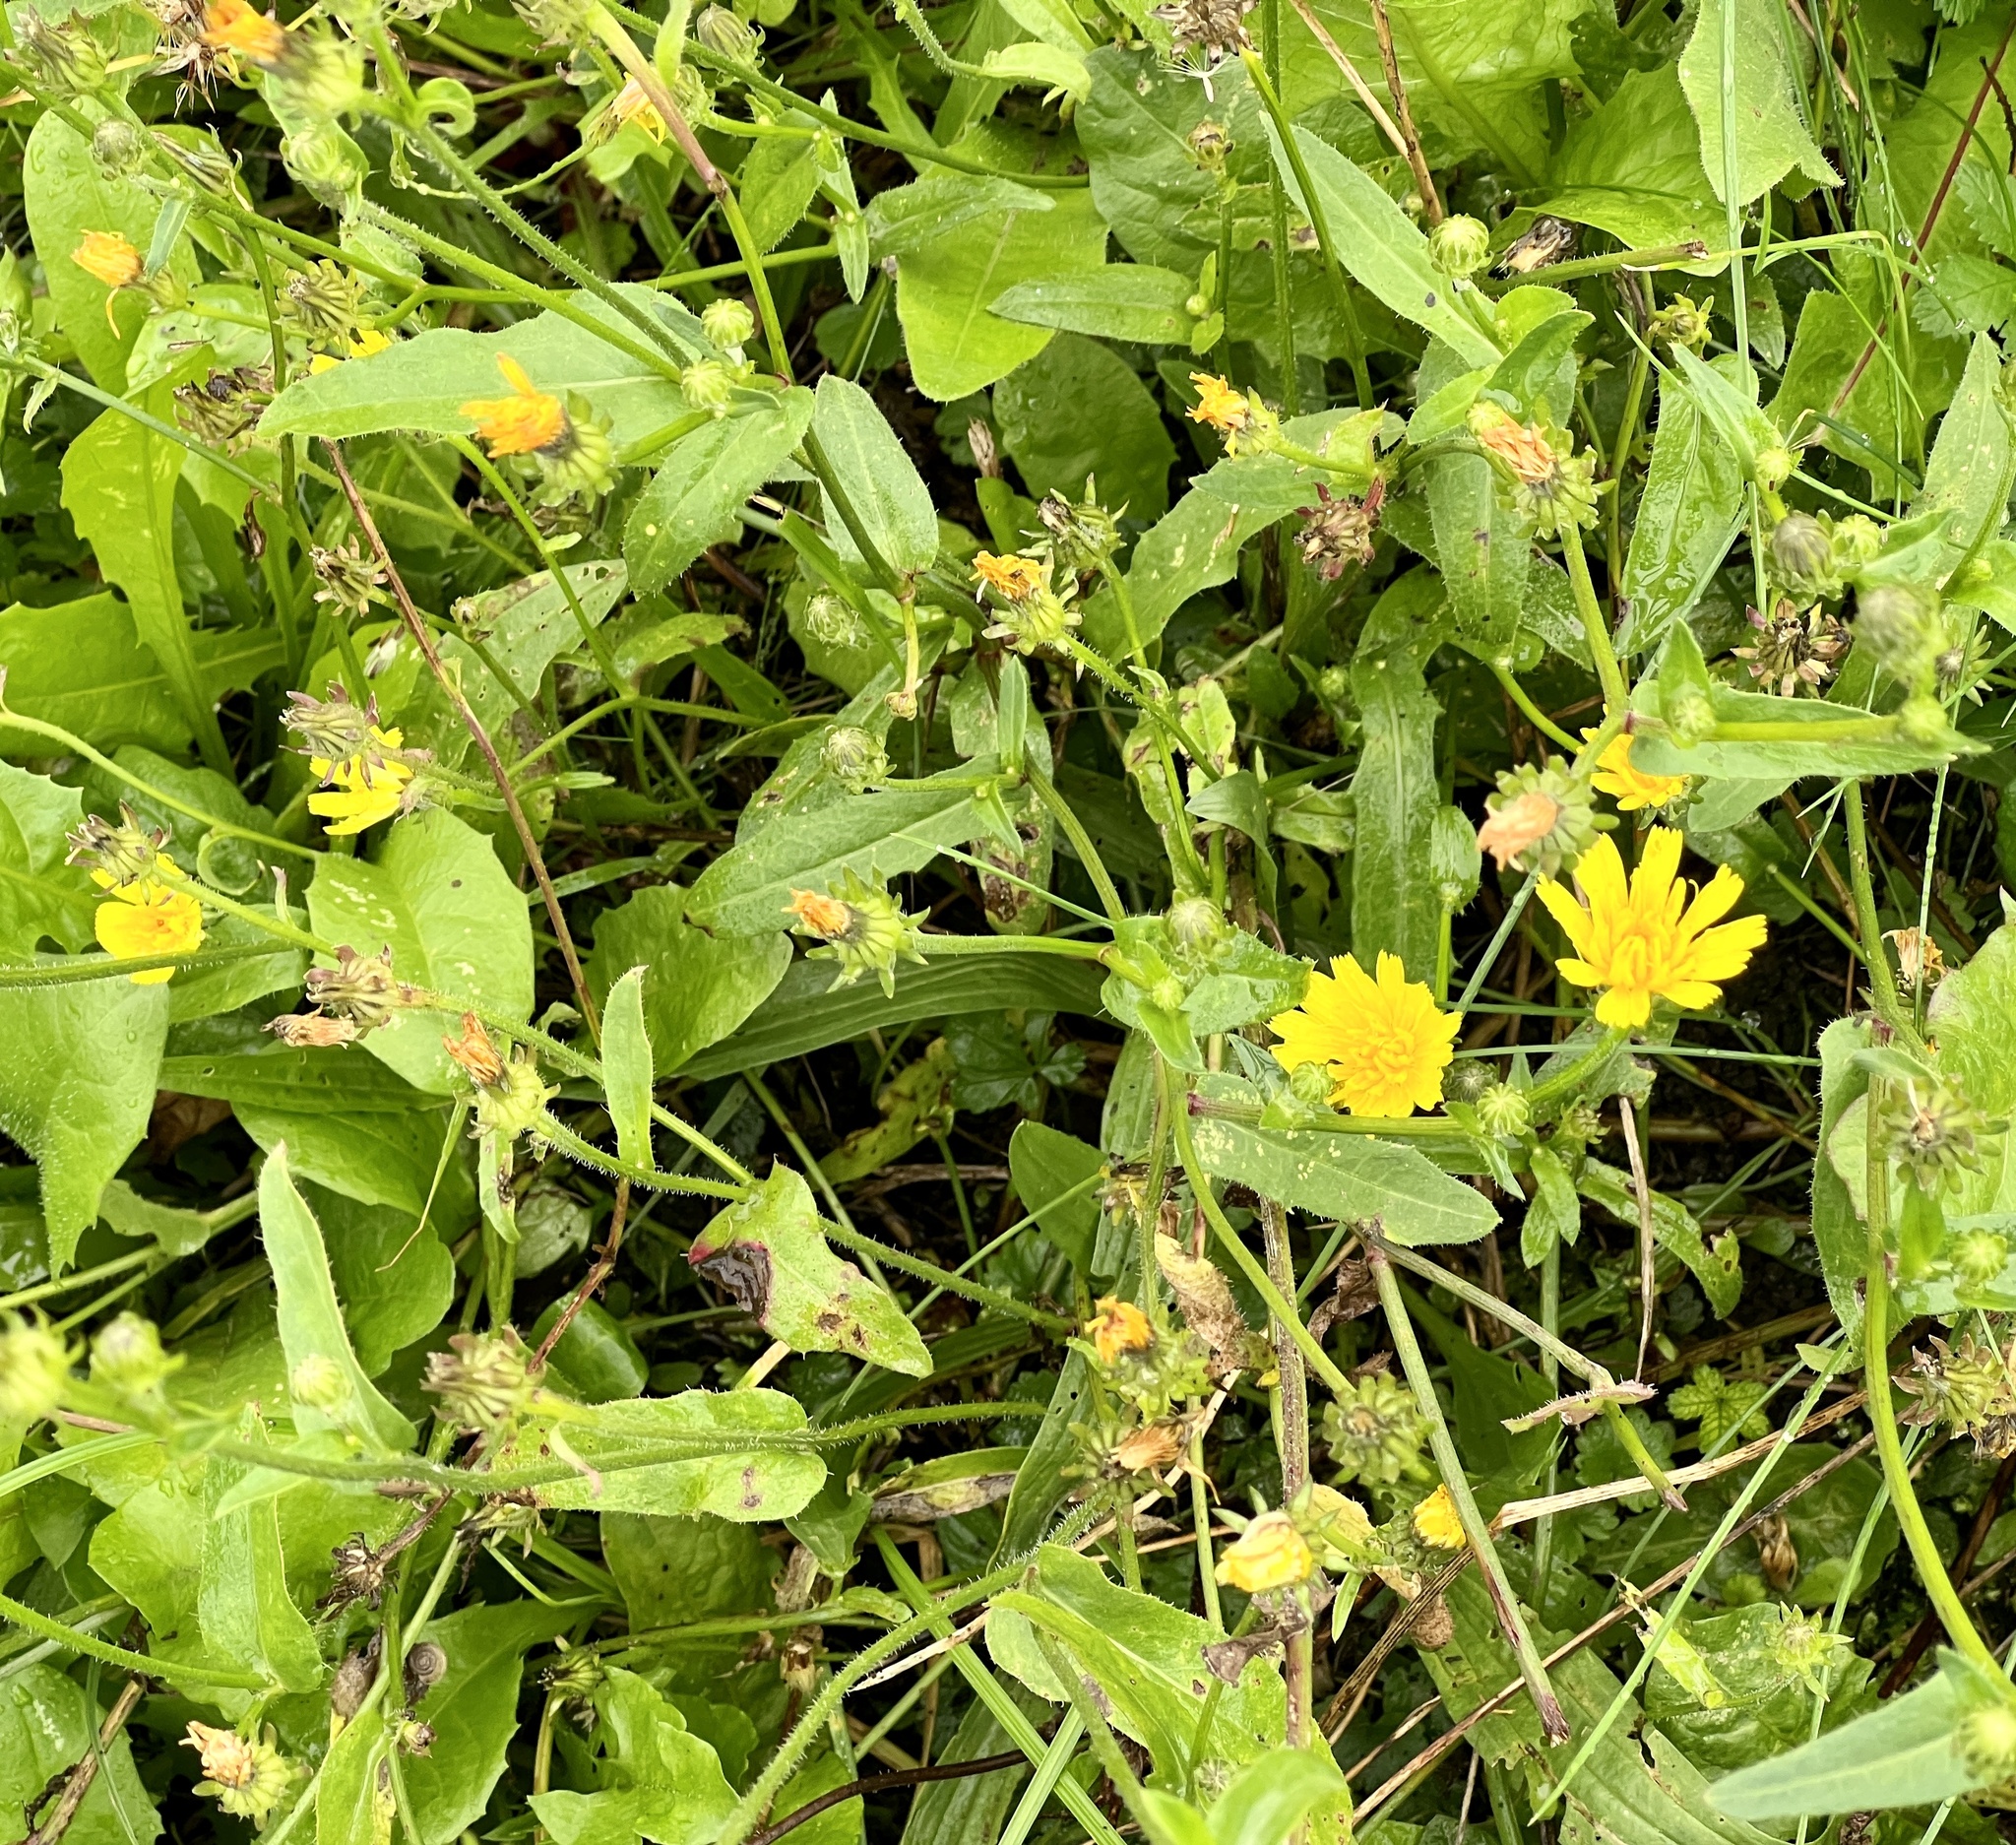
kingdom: Plantae
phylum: Tracheophyta
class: Magnoliopsida
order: Asterales
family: Asteraceae
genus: Picris
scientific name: Picris hieracioides
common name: Hawkweed oxtongue
